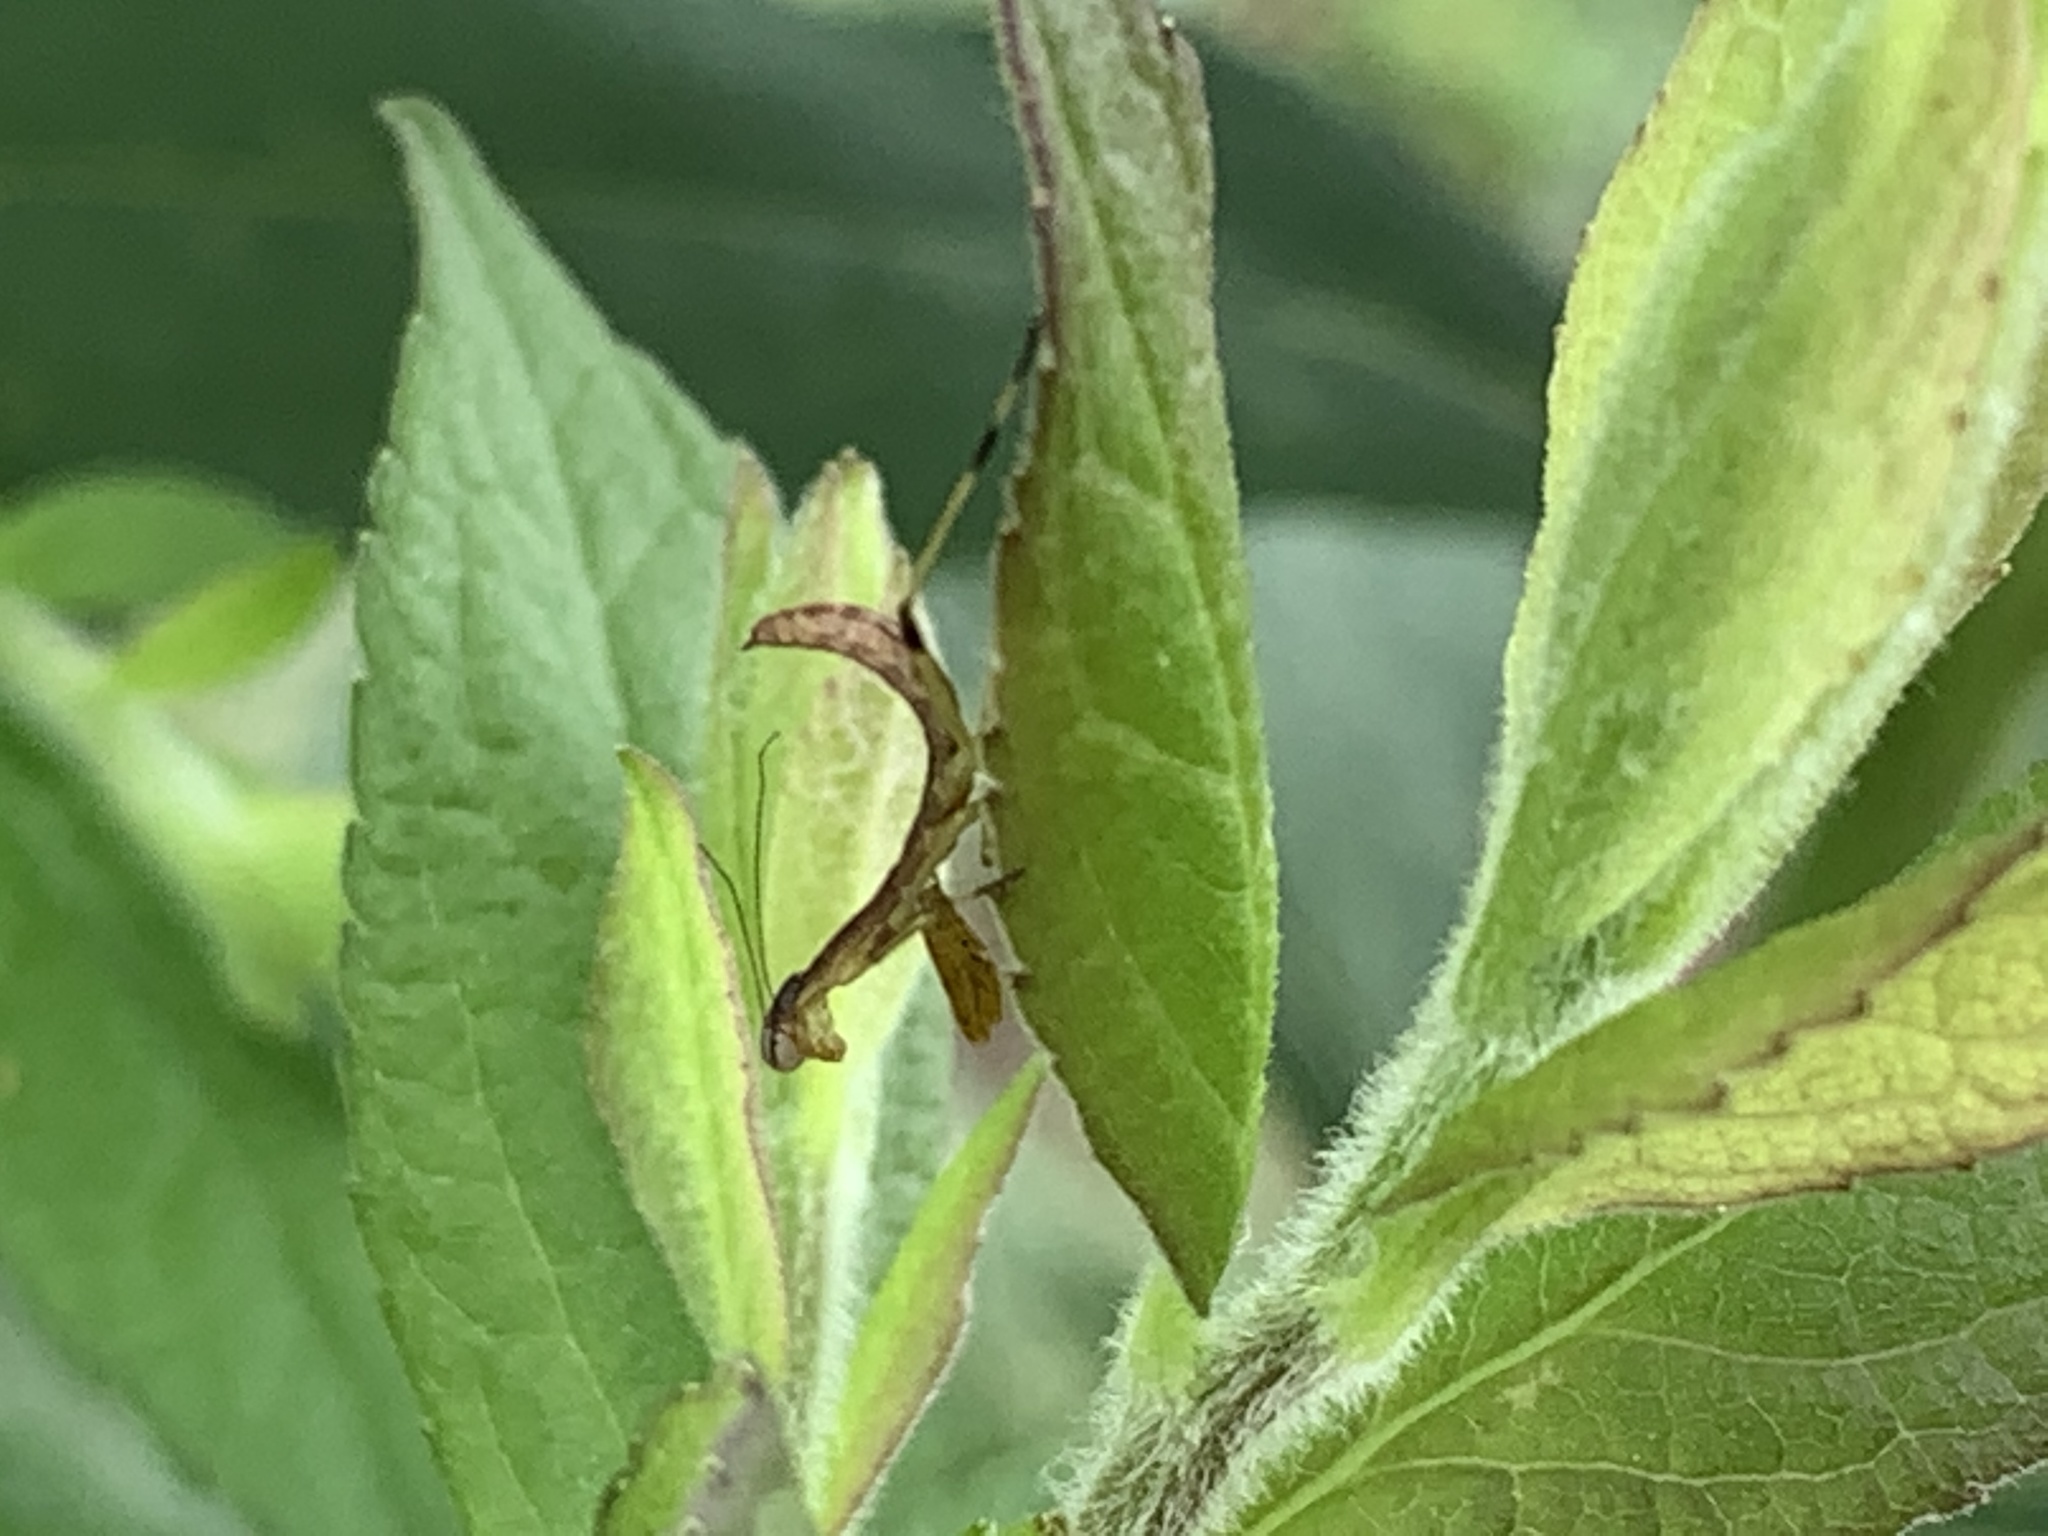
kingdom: Animalia
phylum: Arthropoda
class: Insecta
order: Mantodea
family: Mantidae
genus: Stagmomantis
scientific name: Stagmomantis carolina
